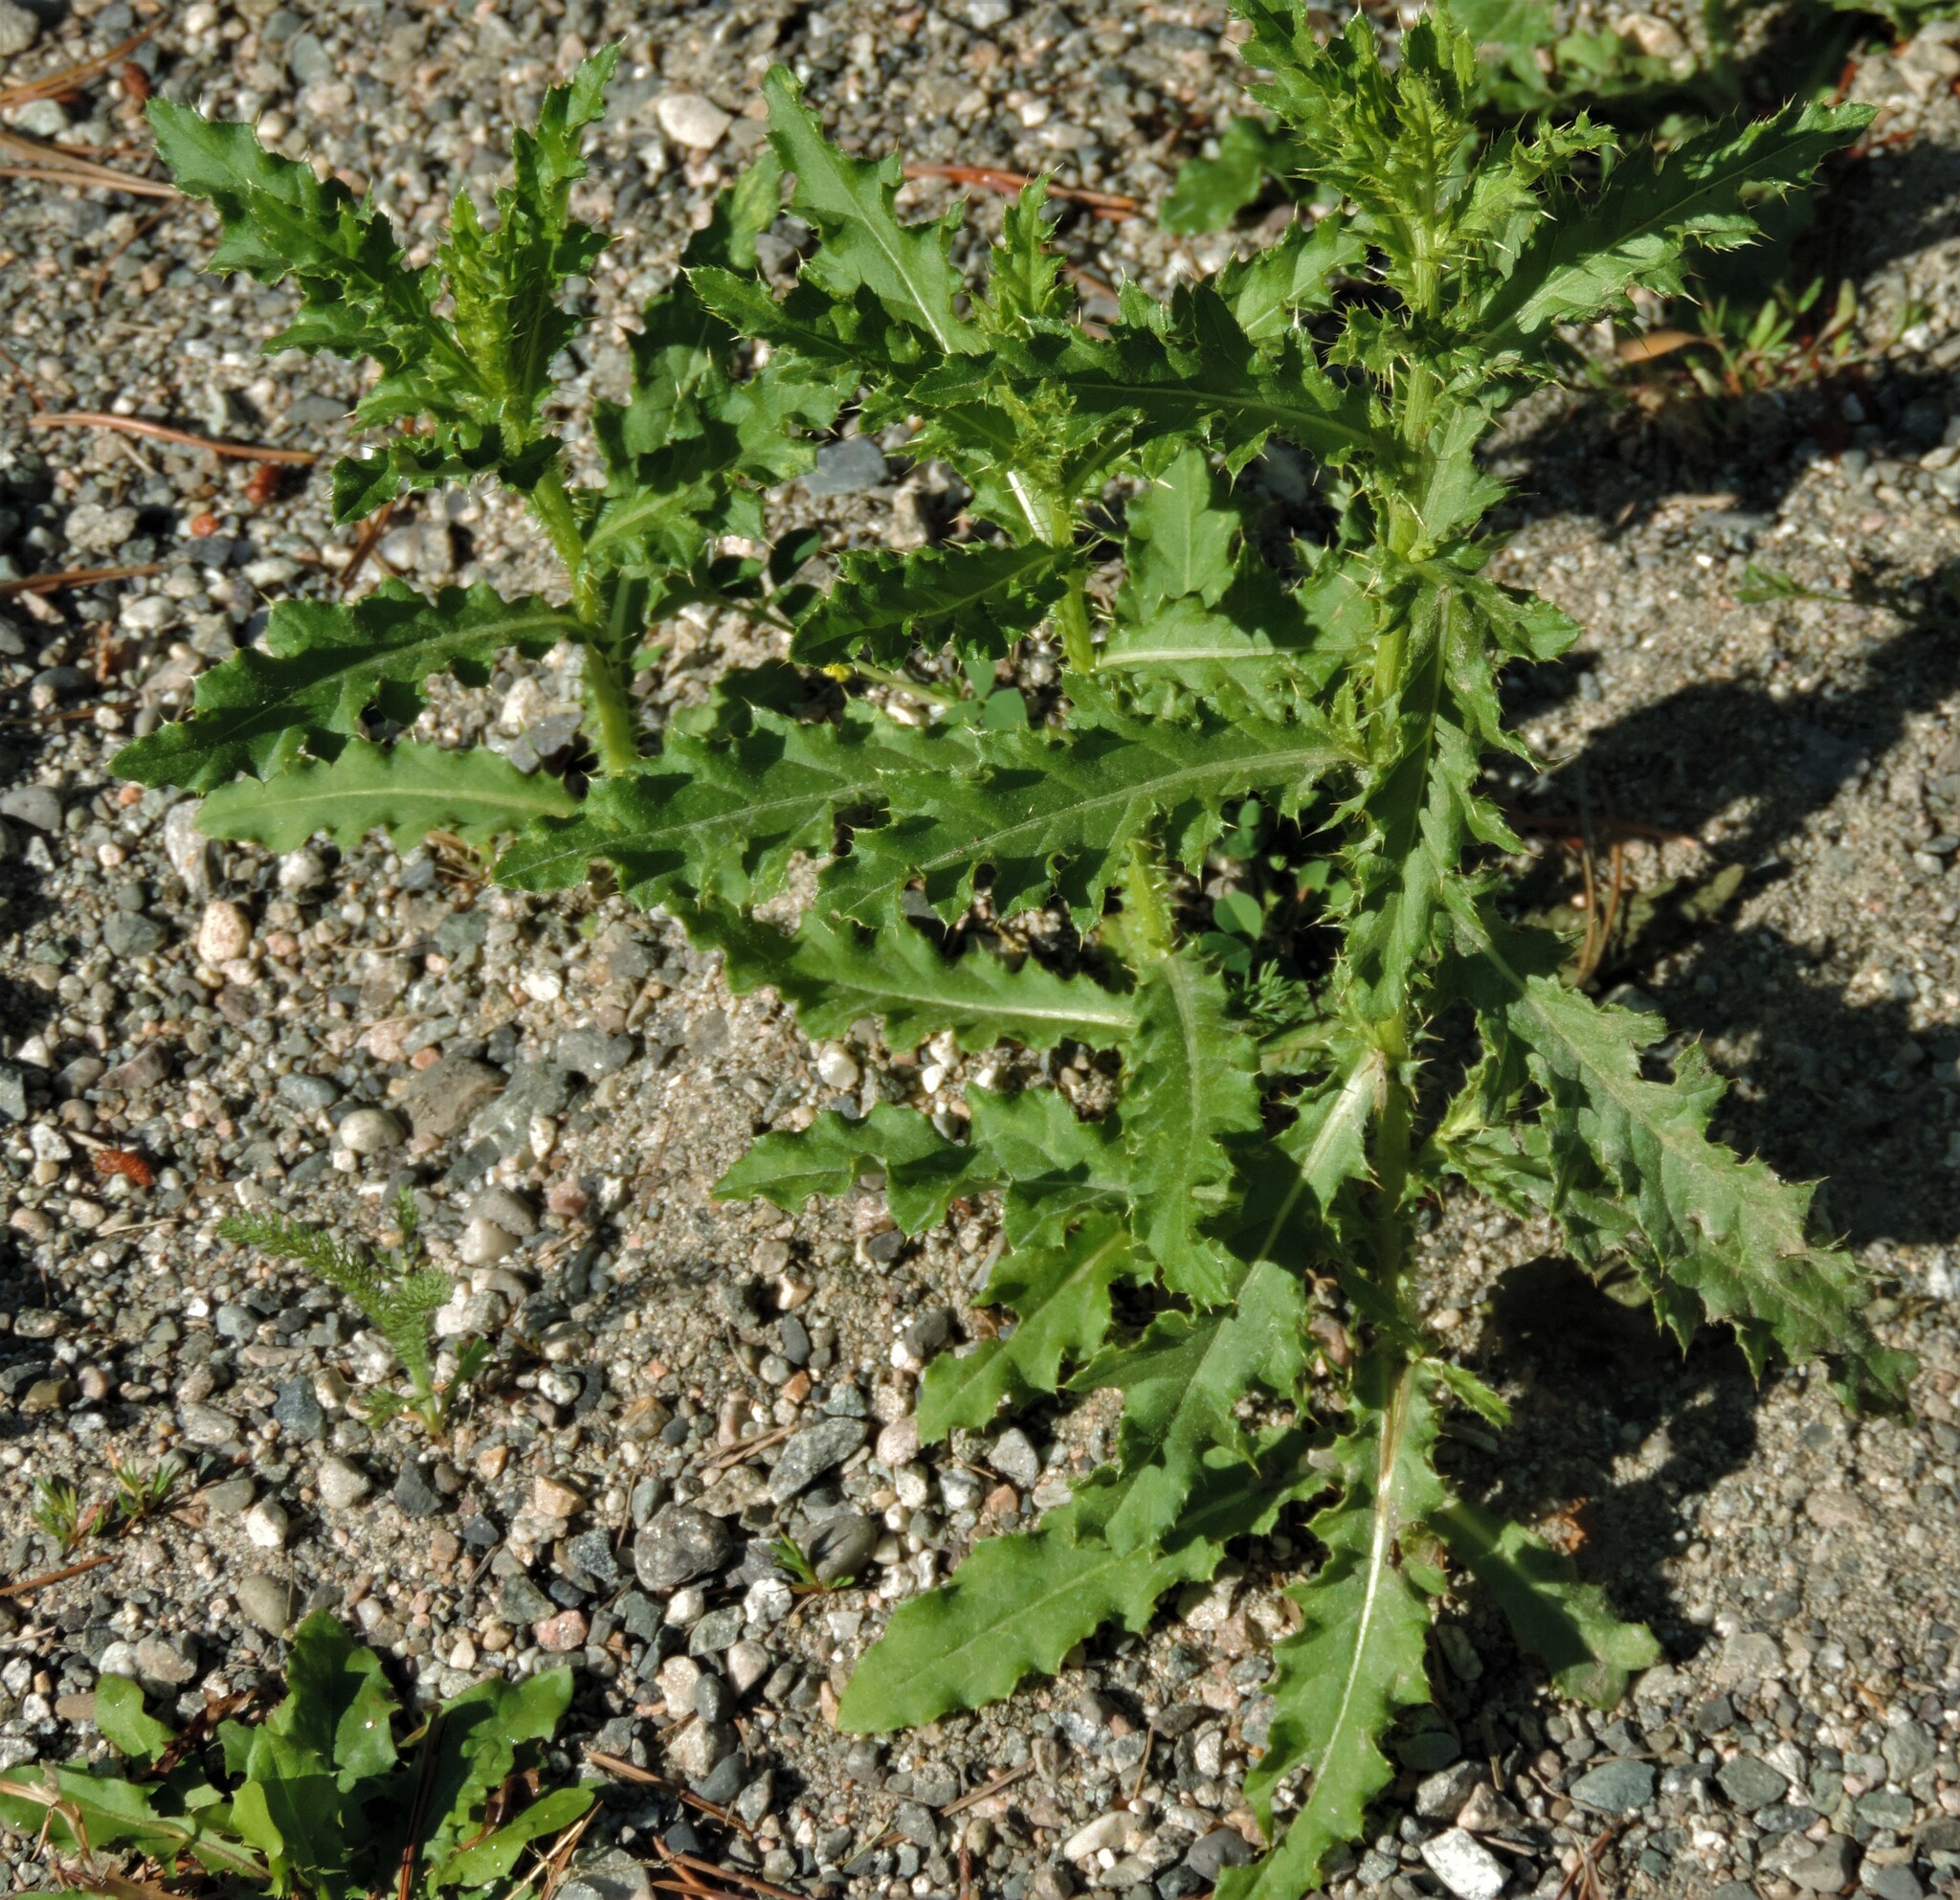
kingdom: Plantae
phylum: Tracheophyta
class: Magnoliopsida
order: Asterales
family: Asteraceae
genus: Cirsium
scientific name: Cirsium arvense
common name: Creeping thistle
